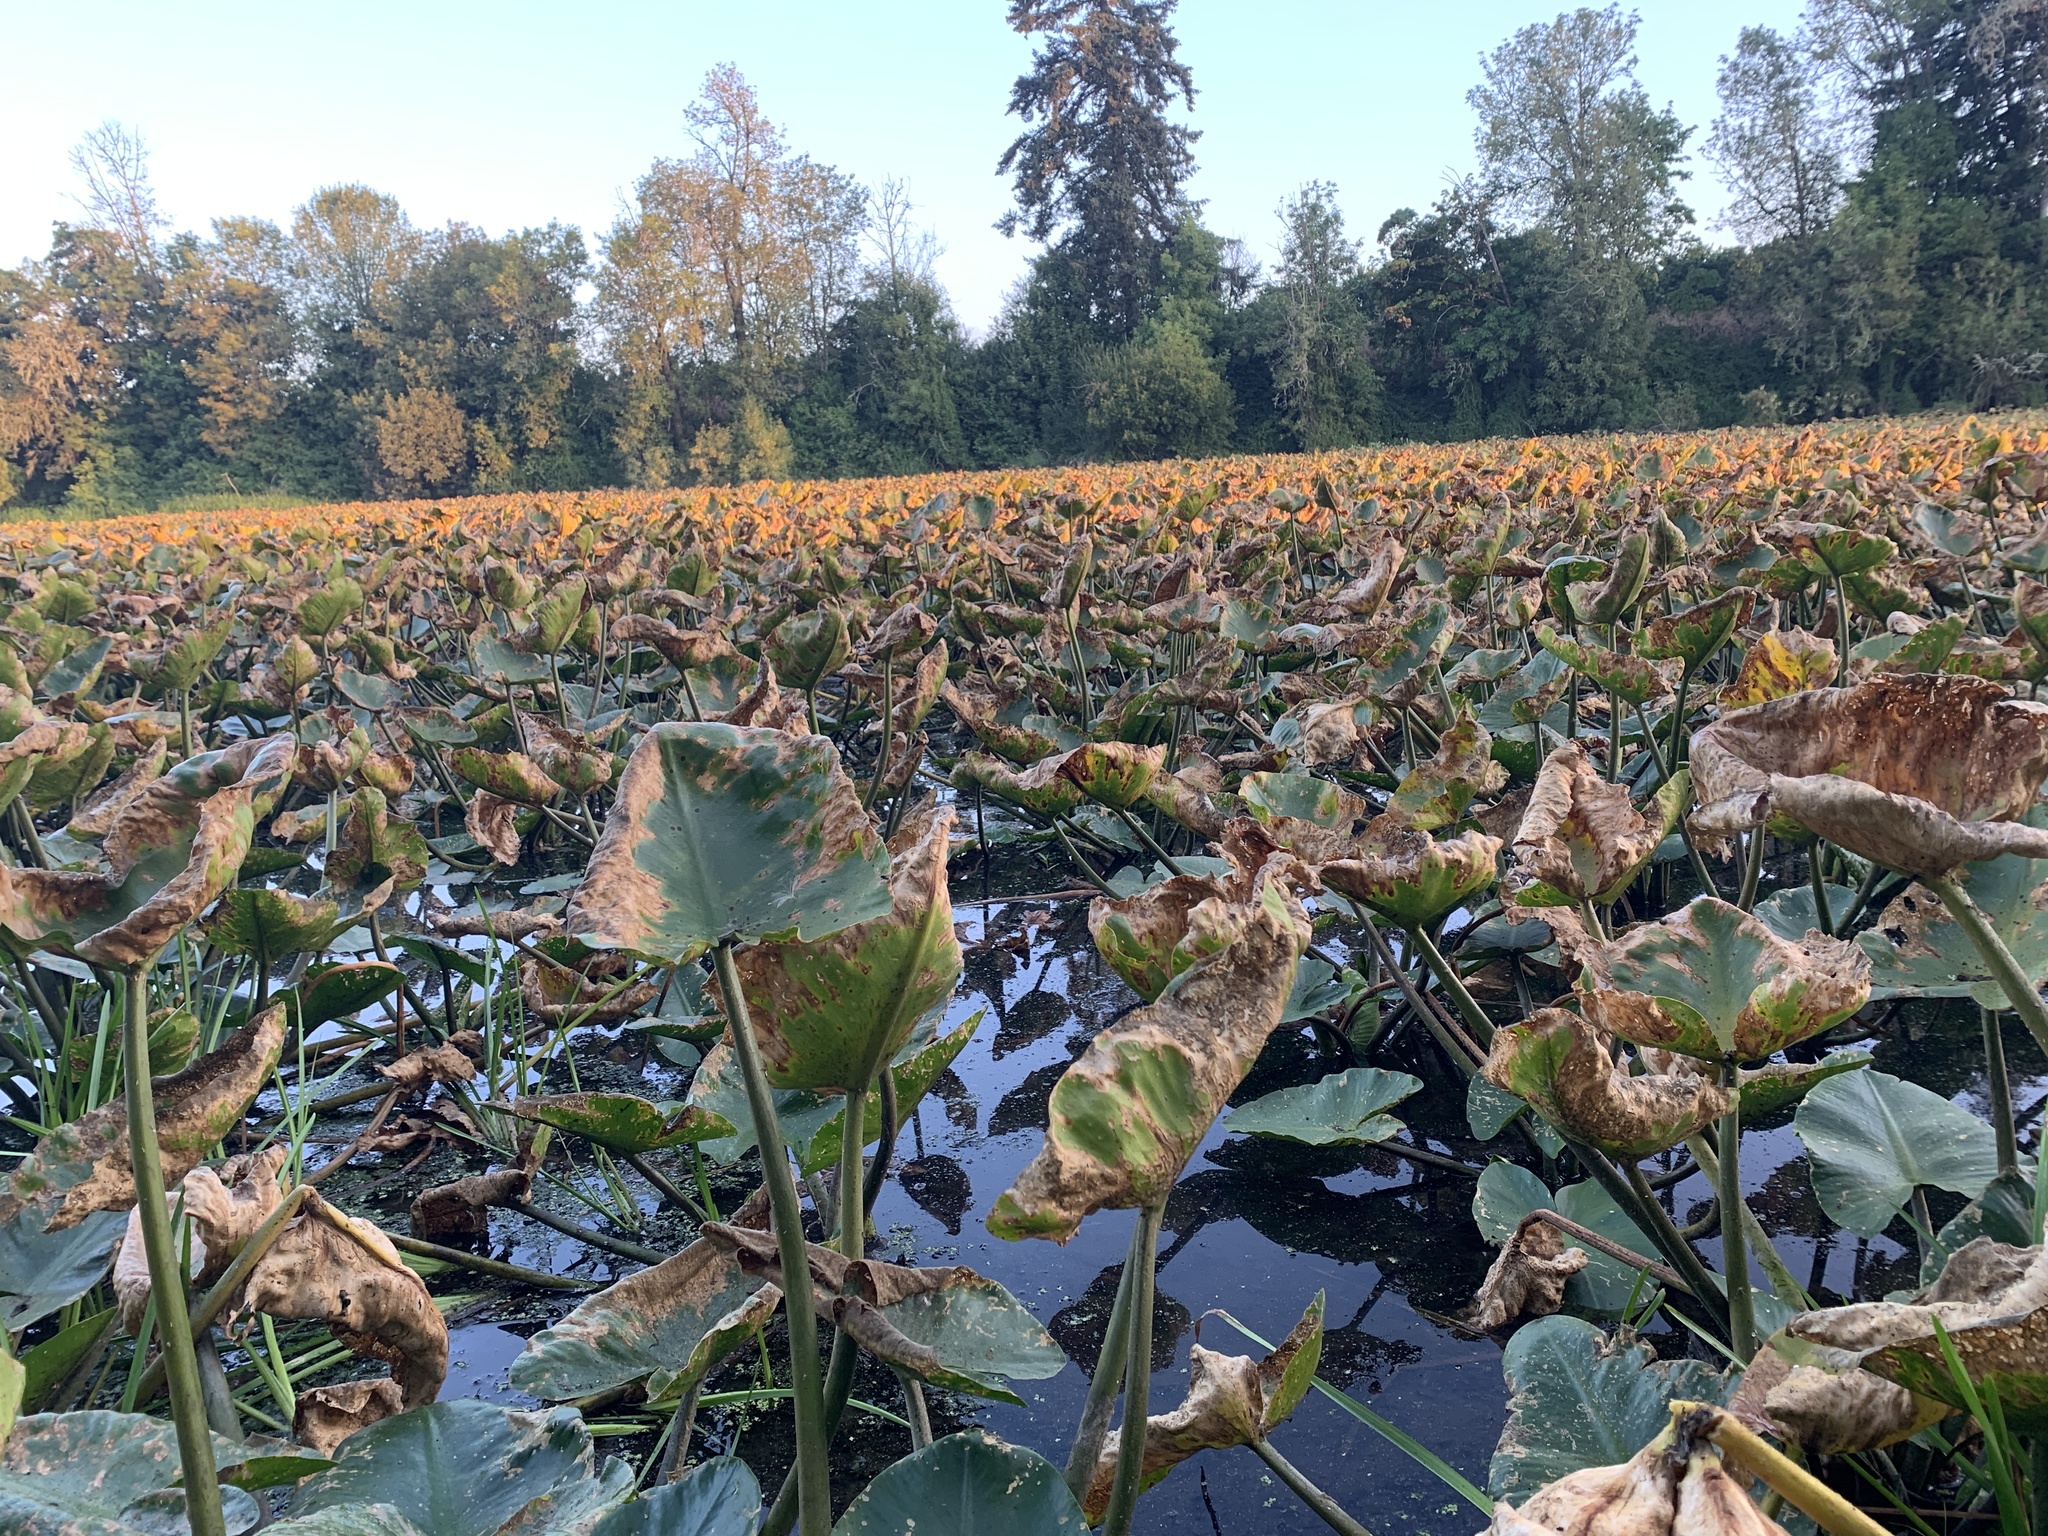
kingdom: Plantae
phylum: Tracheophyta
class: Magnoliopsida
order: Nymphaeales
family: Nymphaeaceae
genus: Nuphar
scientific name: Nuphar polysepala
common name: Rocky mountain cow-lily
